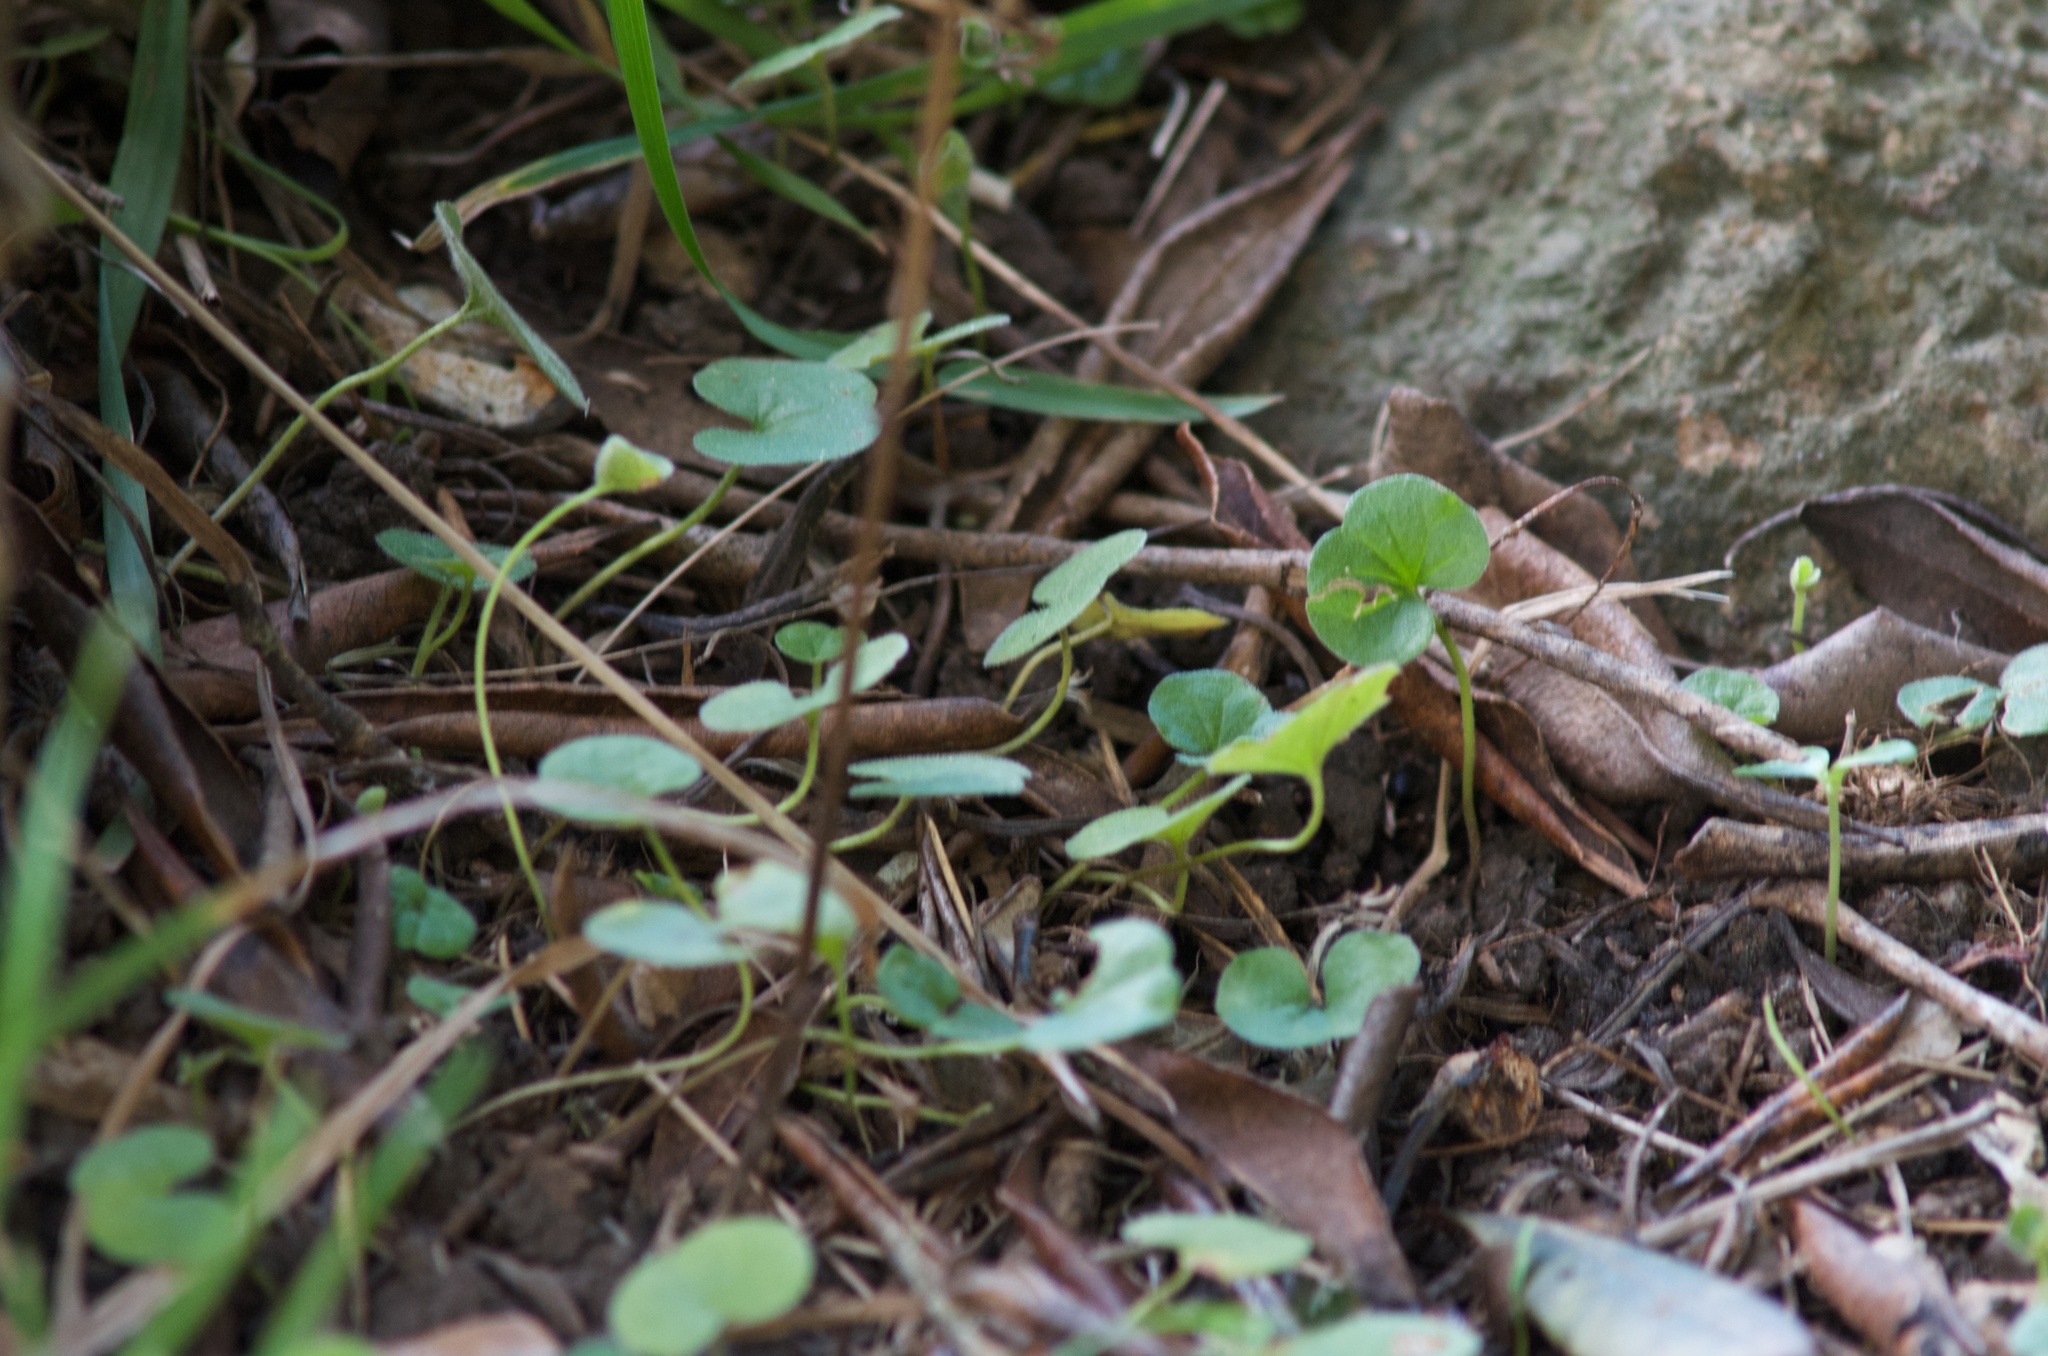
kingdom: Plantae
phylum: Tracheophyta
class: Magnoliopsida
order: Solanales
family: Convolvulaceae
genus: Dichondra
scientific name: Dichondra repens
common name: Kidneyweed
